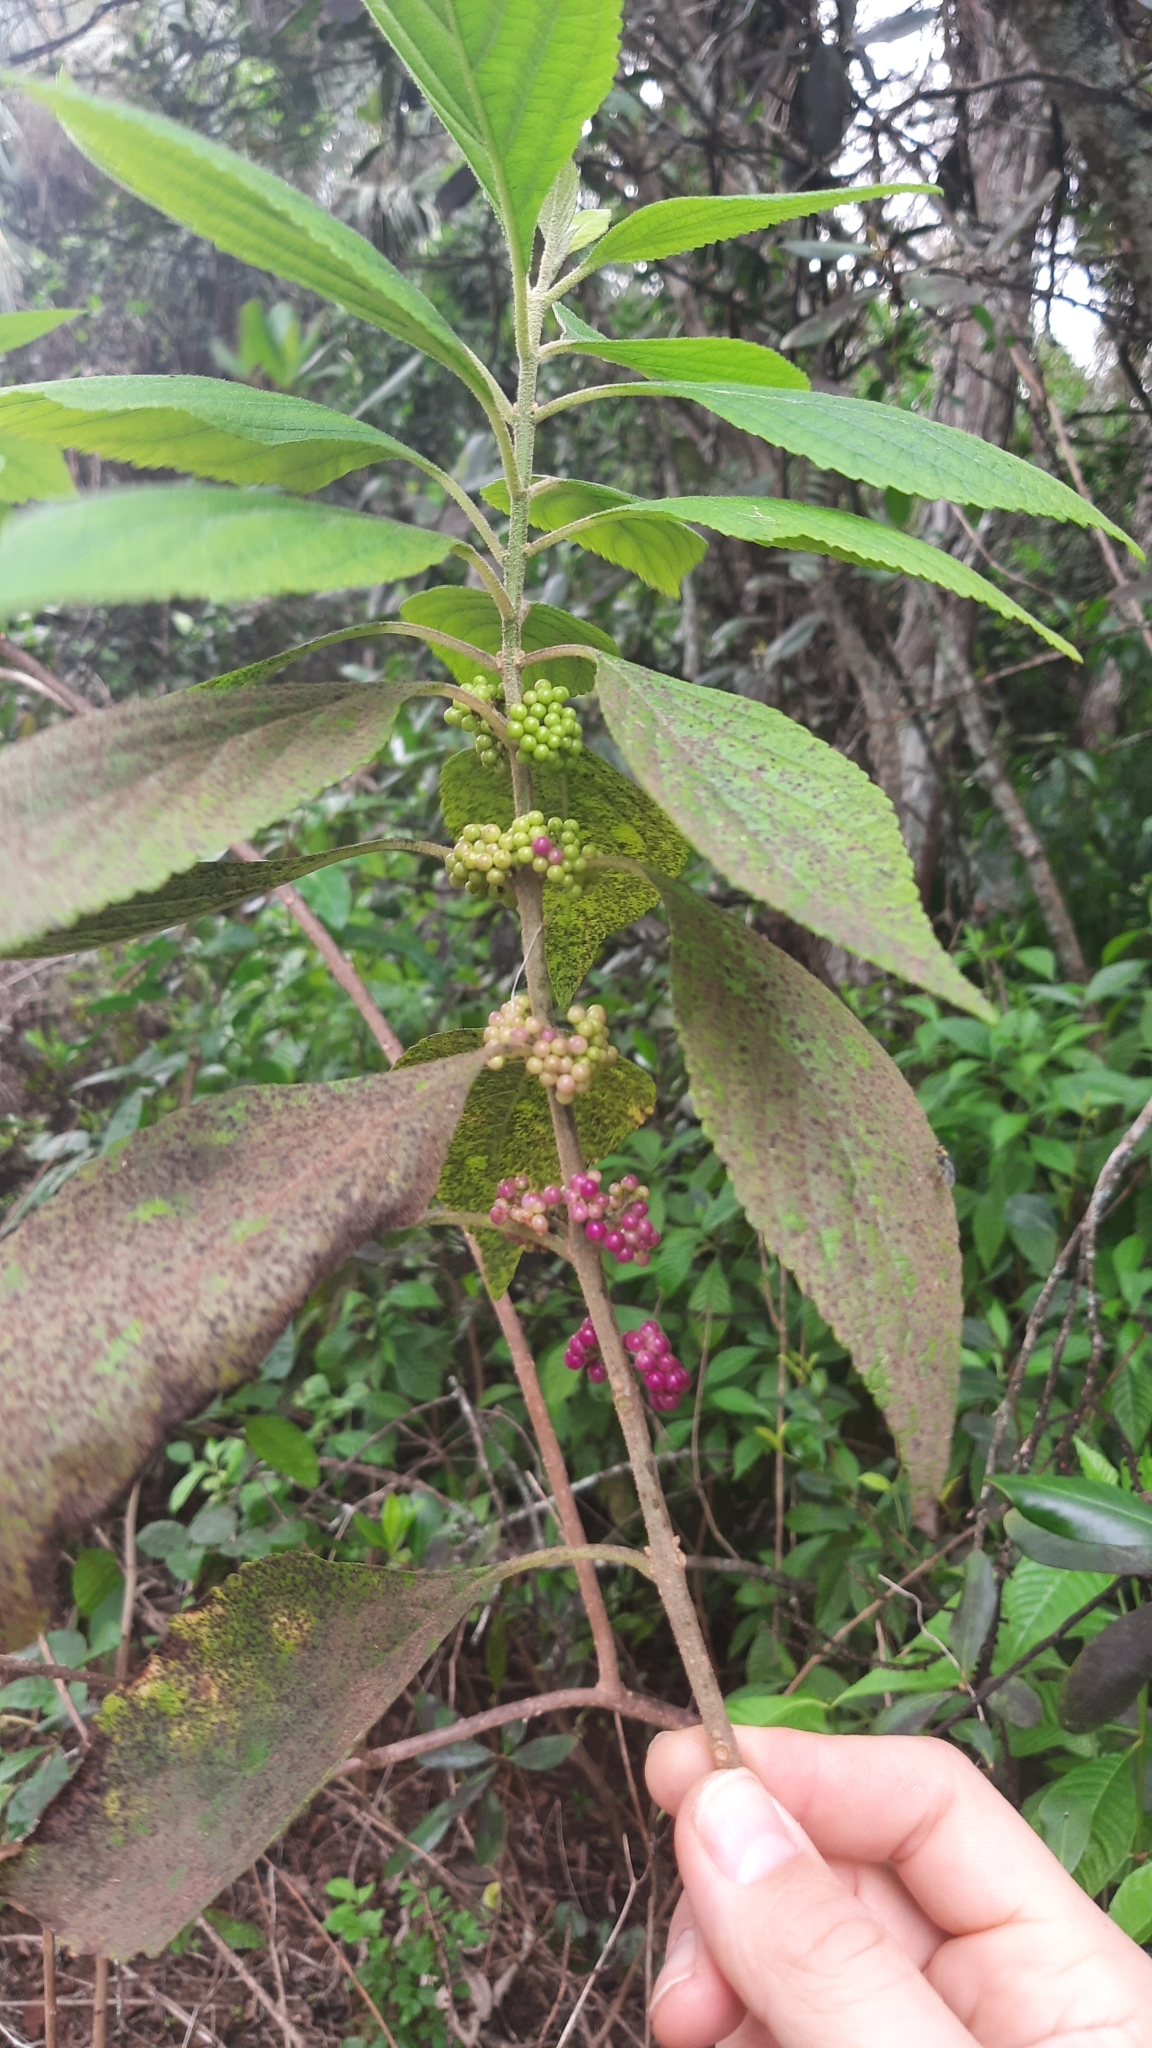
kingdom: Plantae
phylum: Tracheophyta
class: Magnoliopsida
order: Lamiales
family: Lamiaceae
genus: Callicarpa
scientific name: Callicarpa americana
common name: American beautyberry
